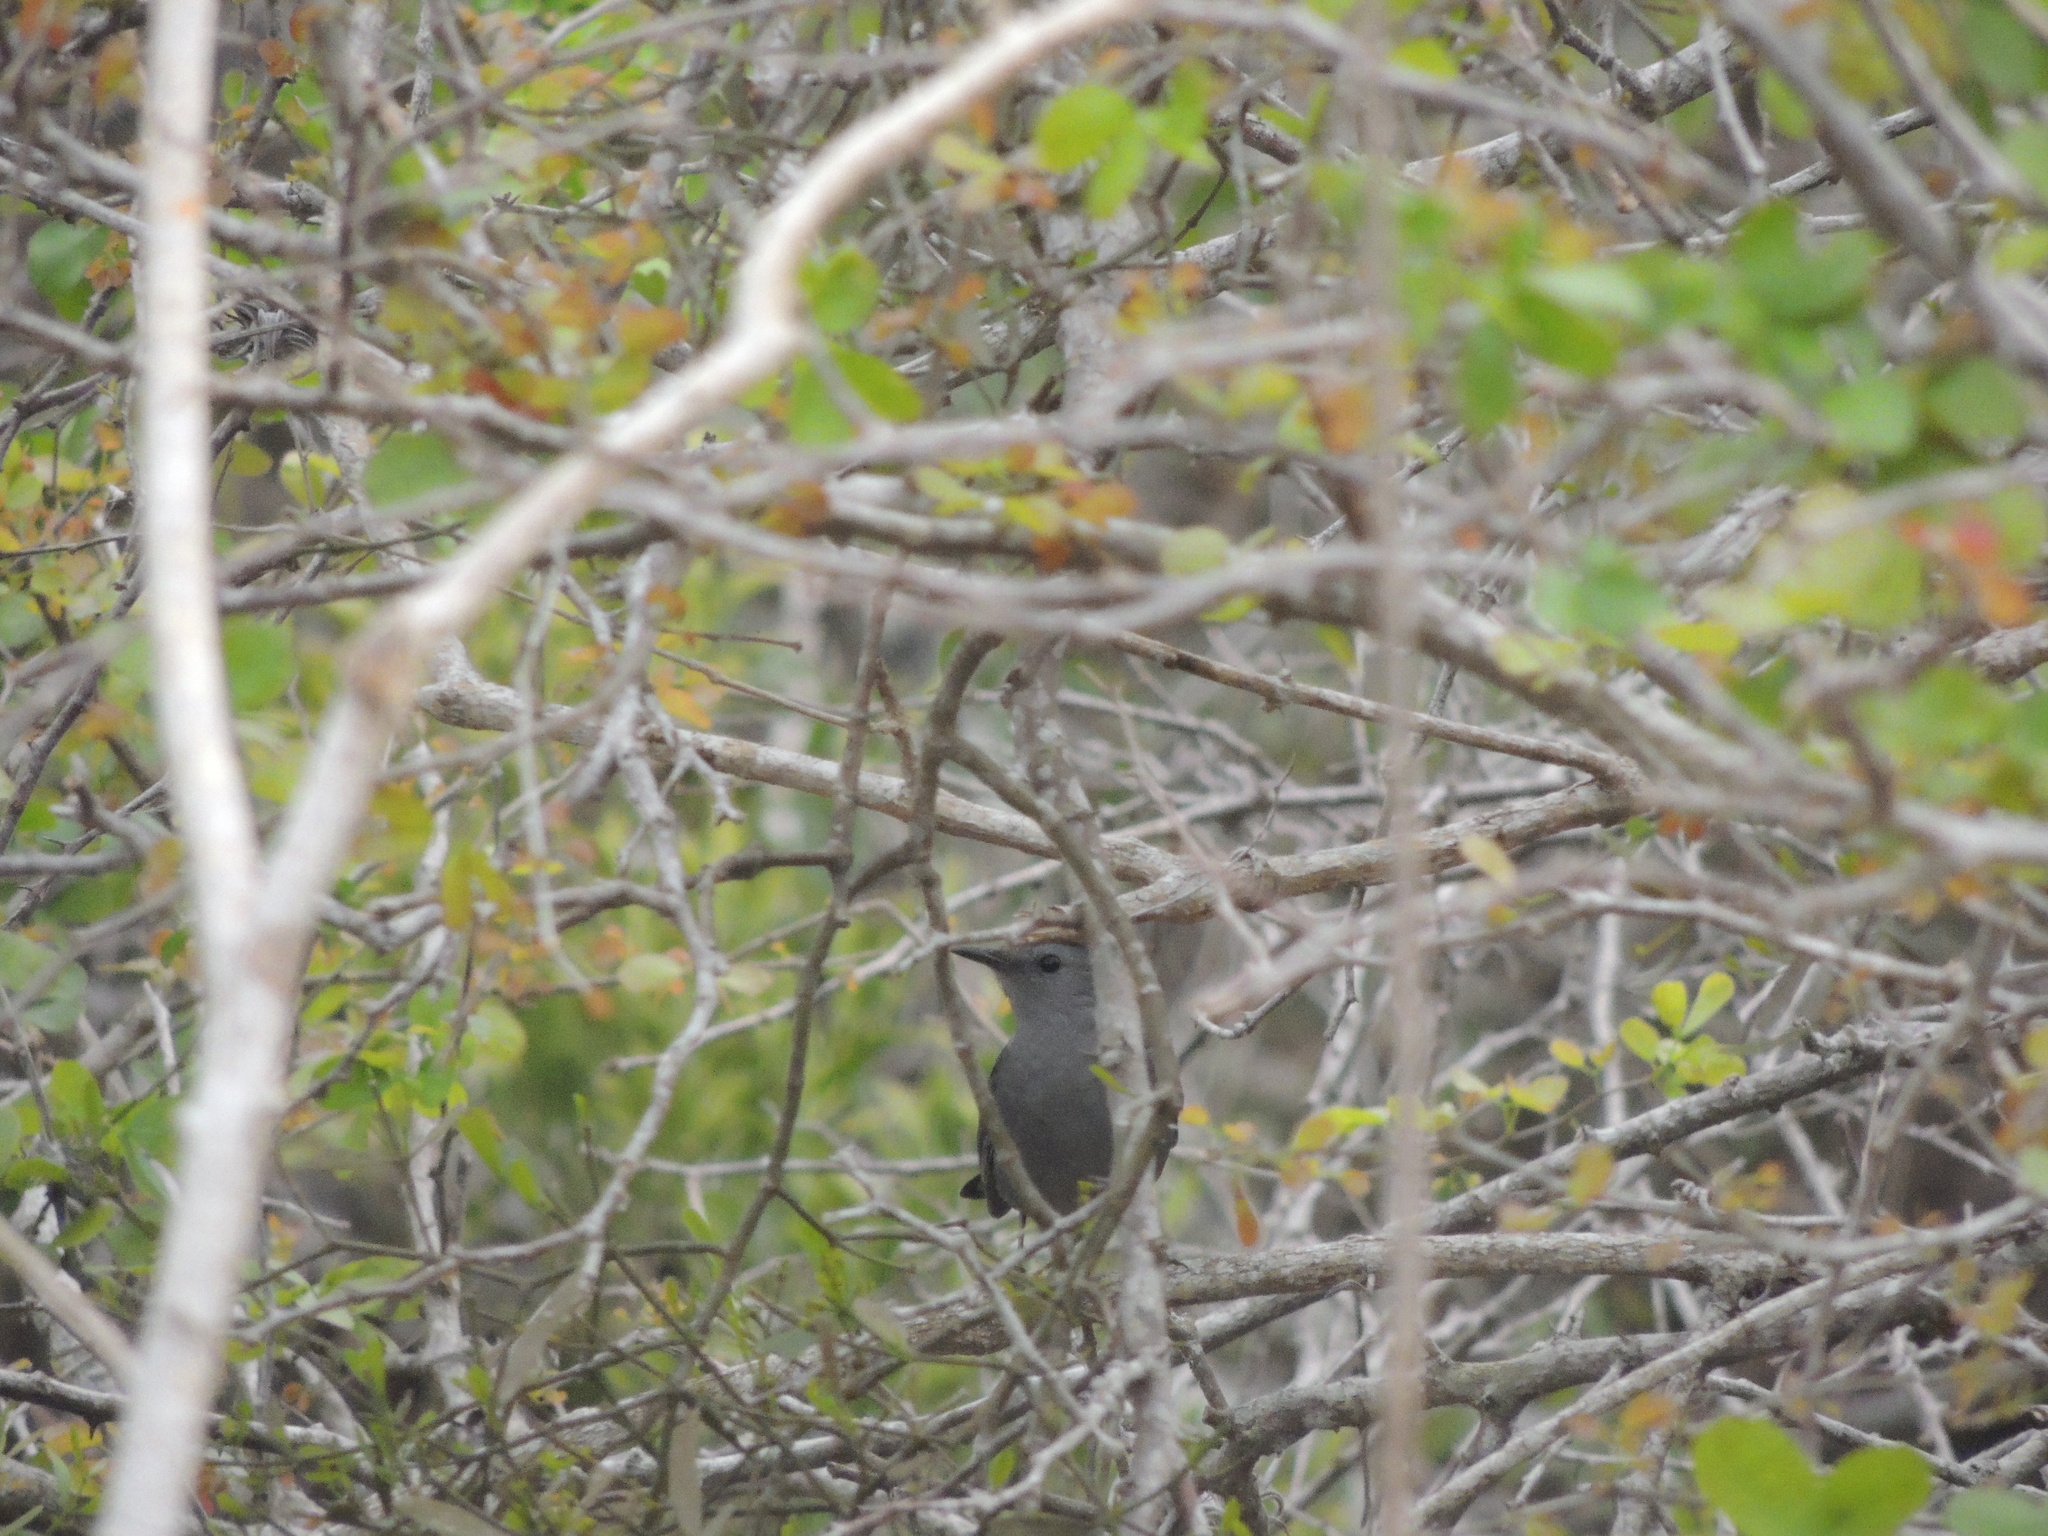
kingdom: Animalia
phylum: Chordata
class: Aves
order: Passeriformes
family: Mimidae
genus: Dumetella
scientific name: Dumetella carolinensis
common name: Gray catbird
